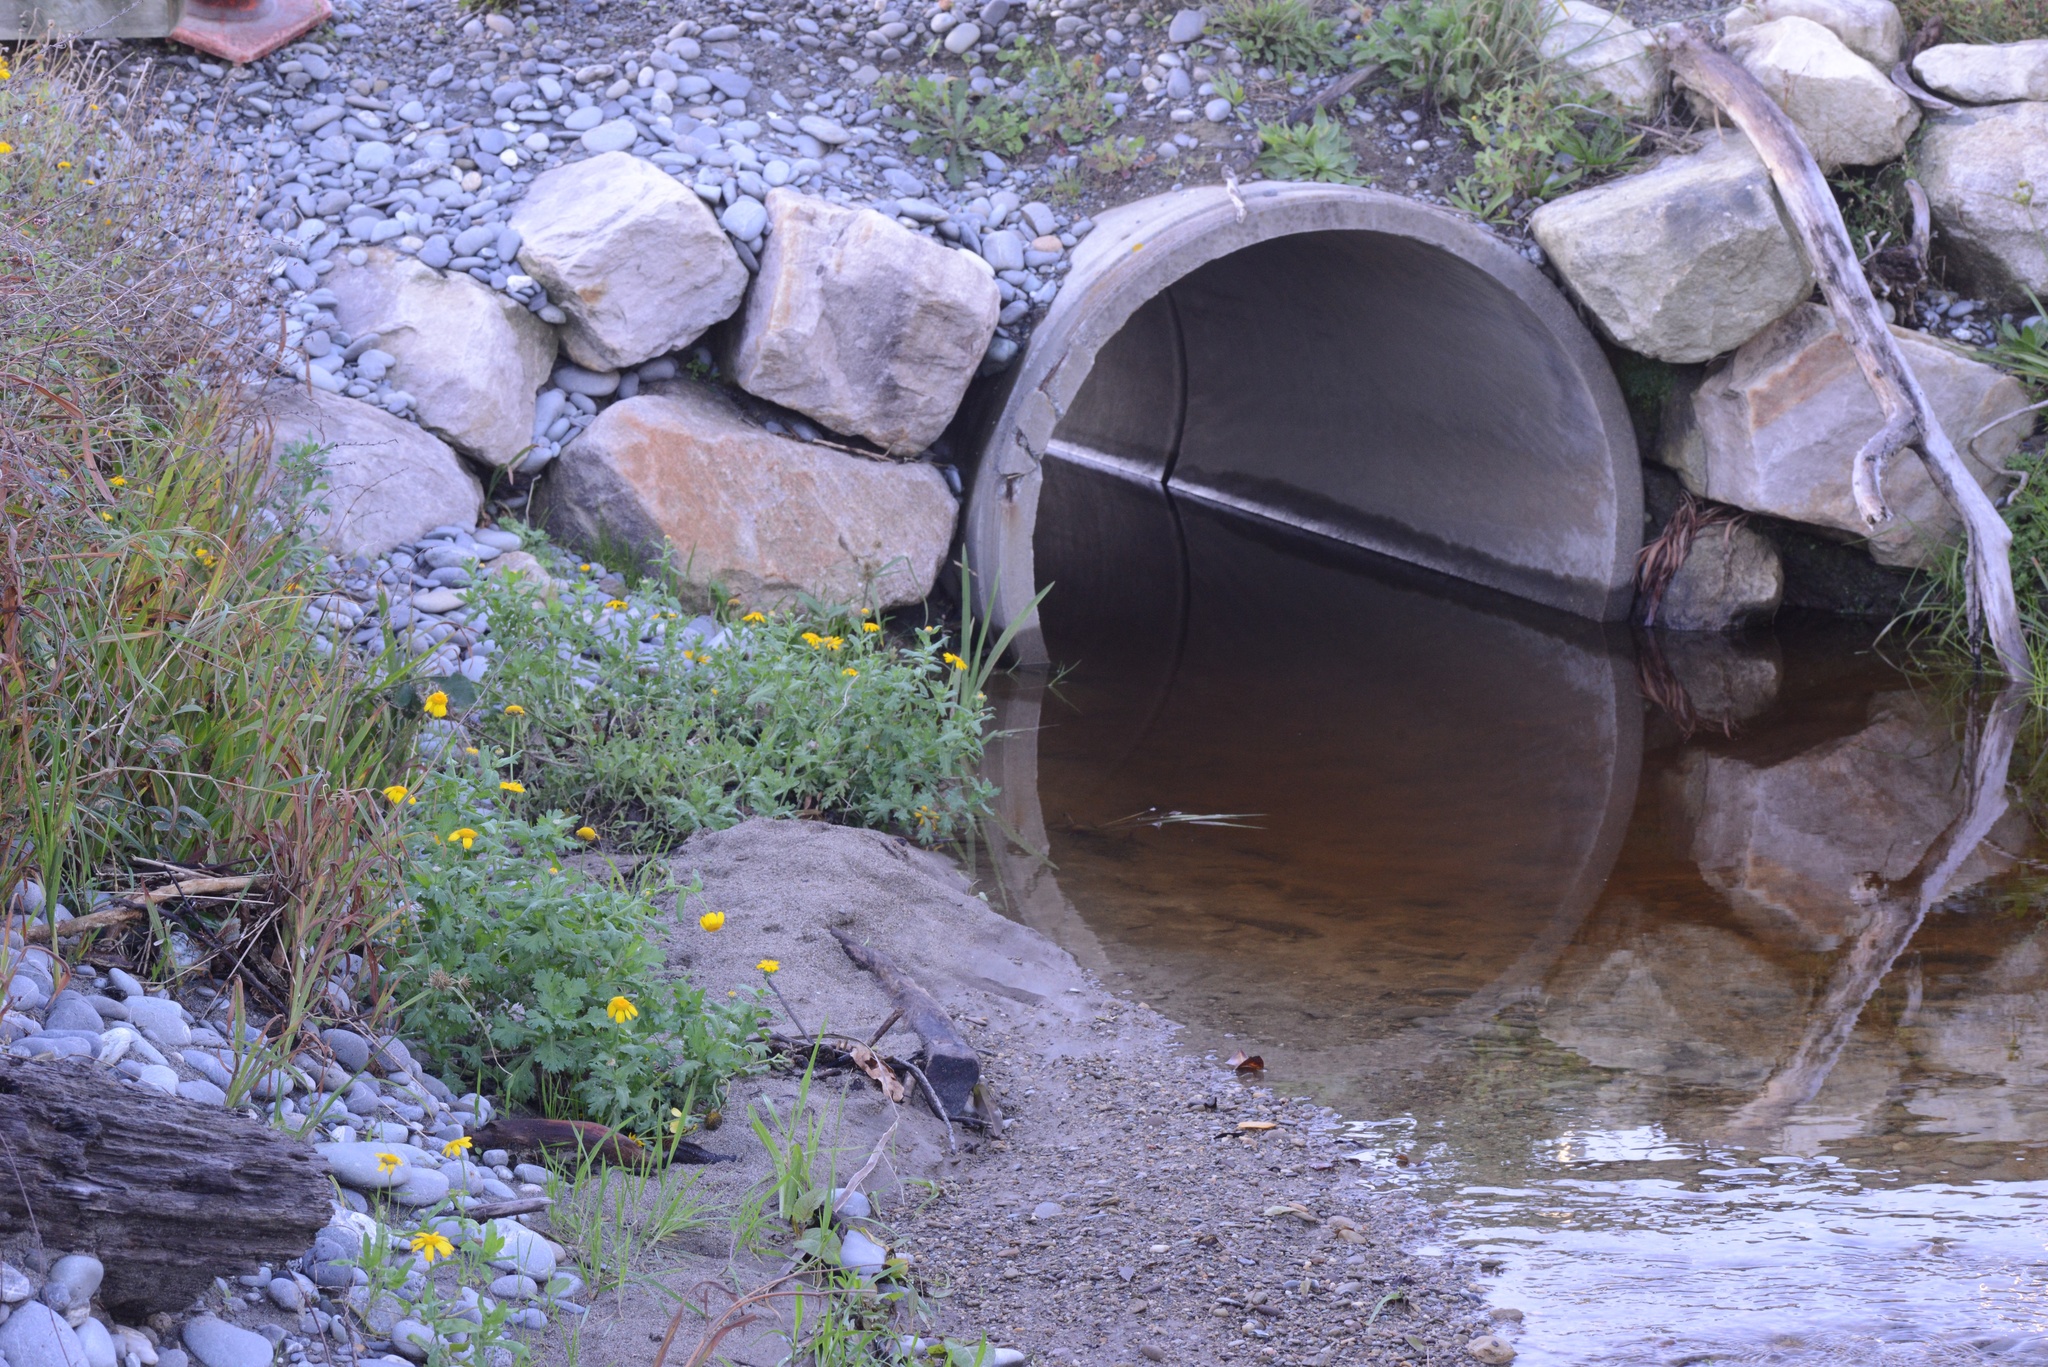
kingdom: Plantae
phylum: Tracheophyta
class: Magnoliopsida
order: Asterales
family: Asteraceae
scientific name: Asteraceae
